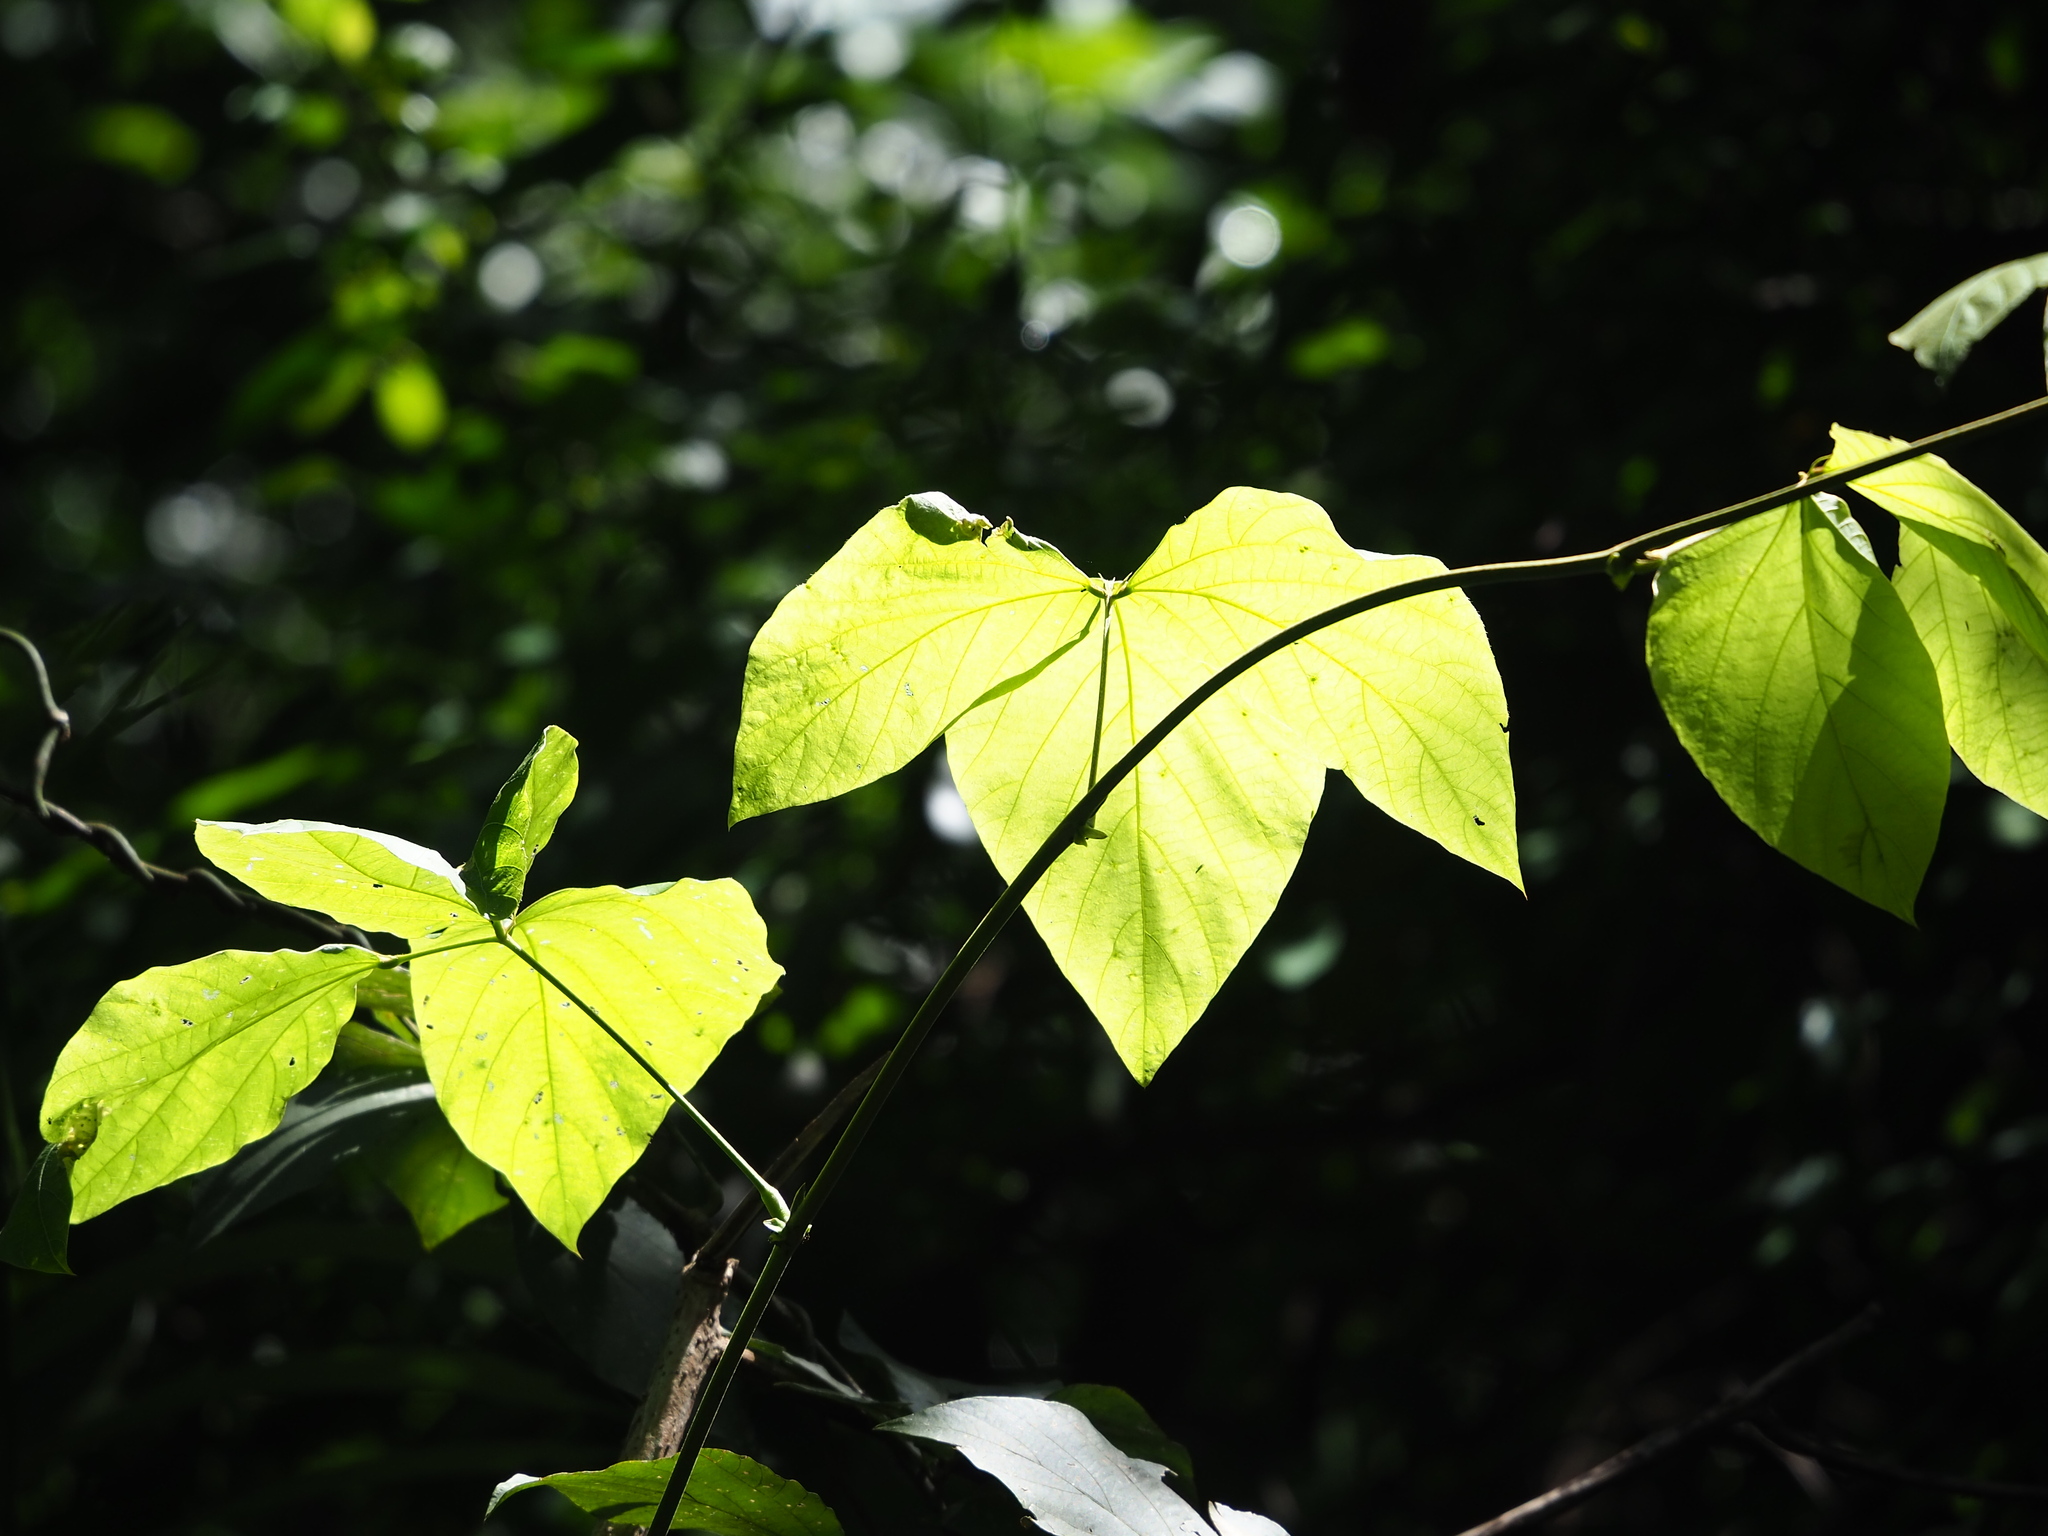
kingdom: Plantae
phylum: Tracheophyta
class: Magnoliopsida
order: Fabales
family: Fabaceae
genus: Pueraria
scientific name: Pueraria montana
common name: Kudzu
